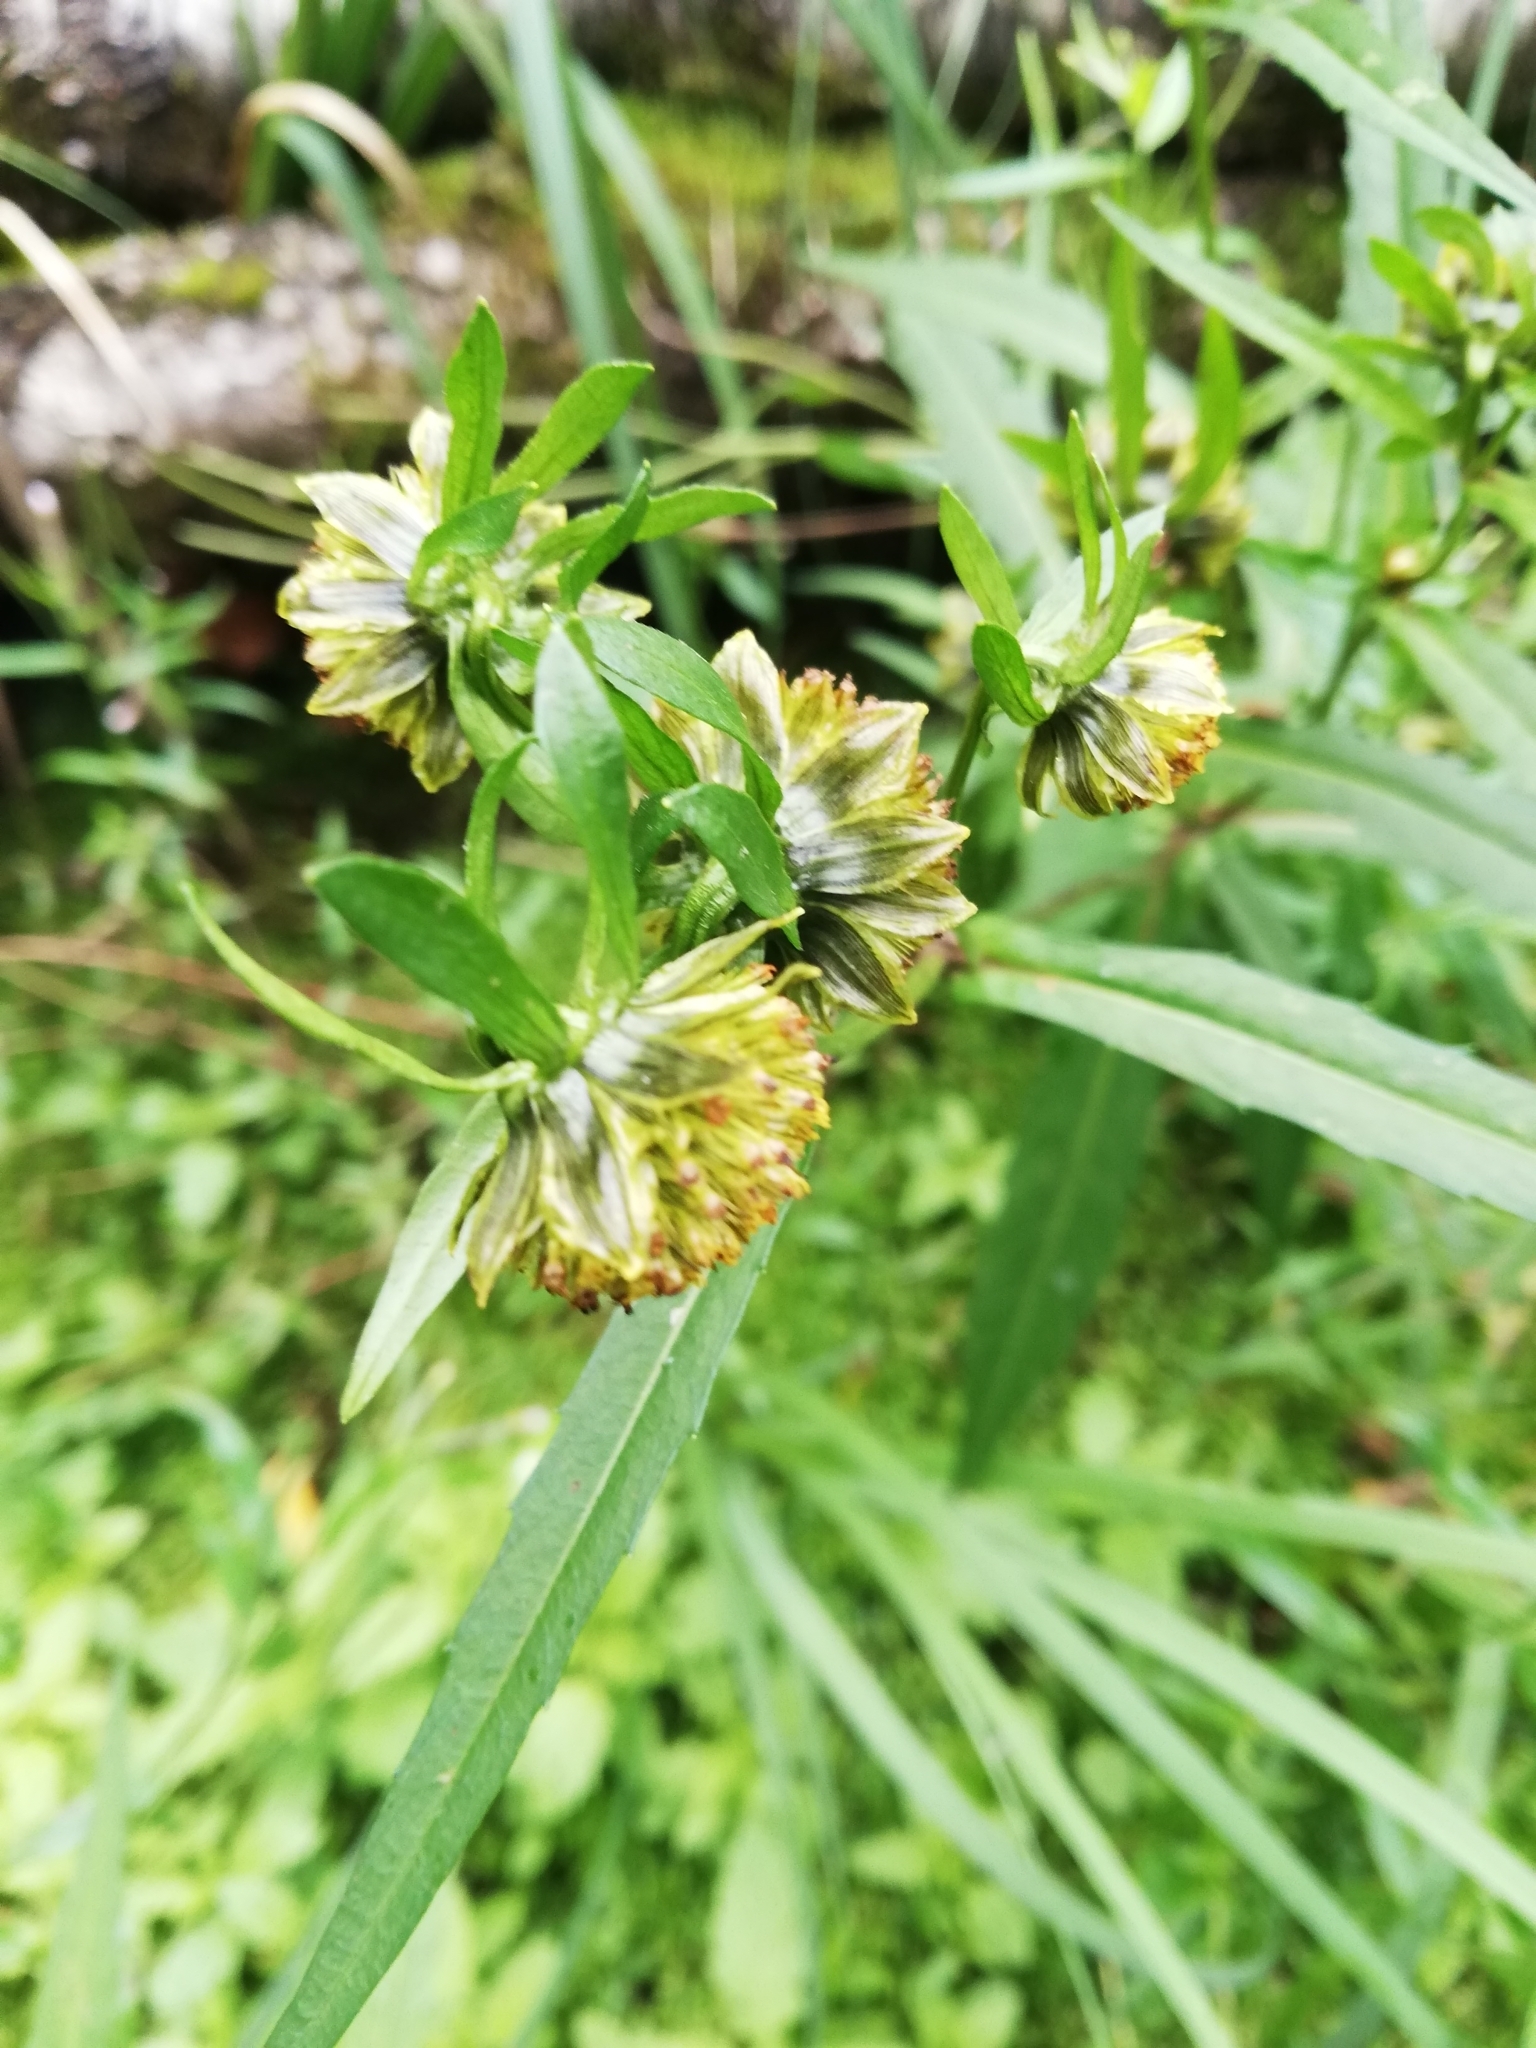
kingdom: Plantae
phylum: Tracheophyta
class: Magnoliopsida
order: Asterales
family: Asteraceae
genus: Bidens
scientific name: Bidens cernua
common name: Nodding bur-marigold
